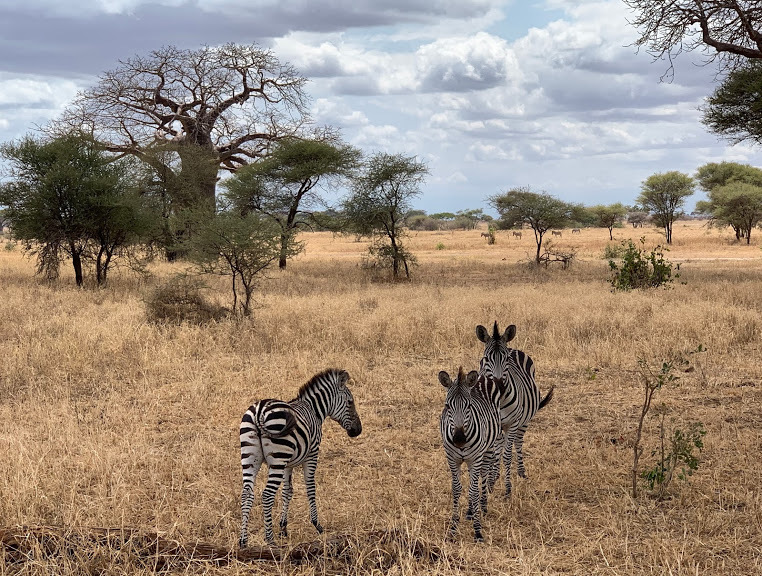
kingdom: Animalia
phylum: Chordata
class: Mammalia
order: Perissodactyla
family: Equidae
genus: Equus
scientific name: Equus quagga
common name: Plains zebra
